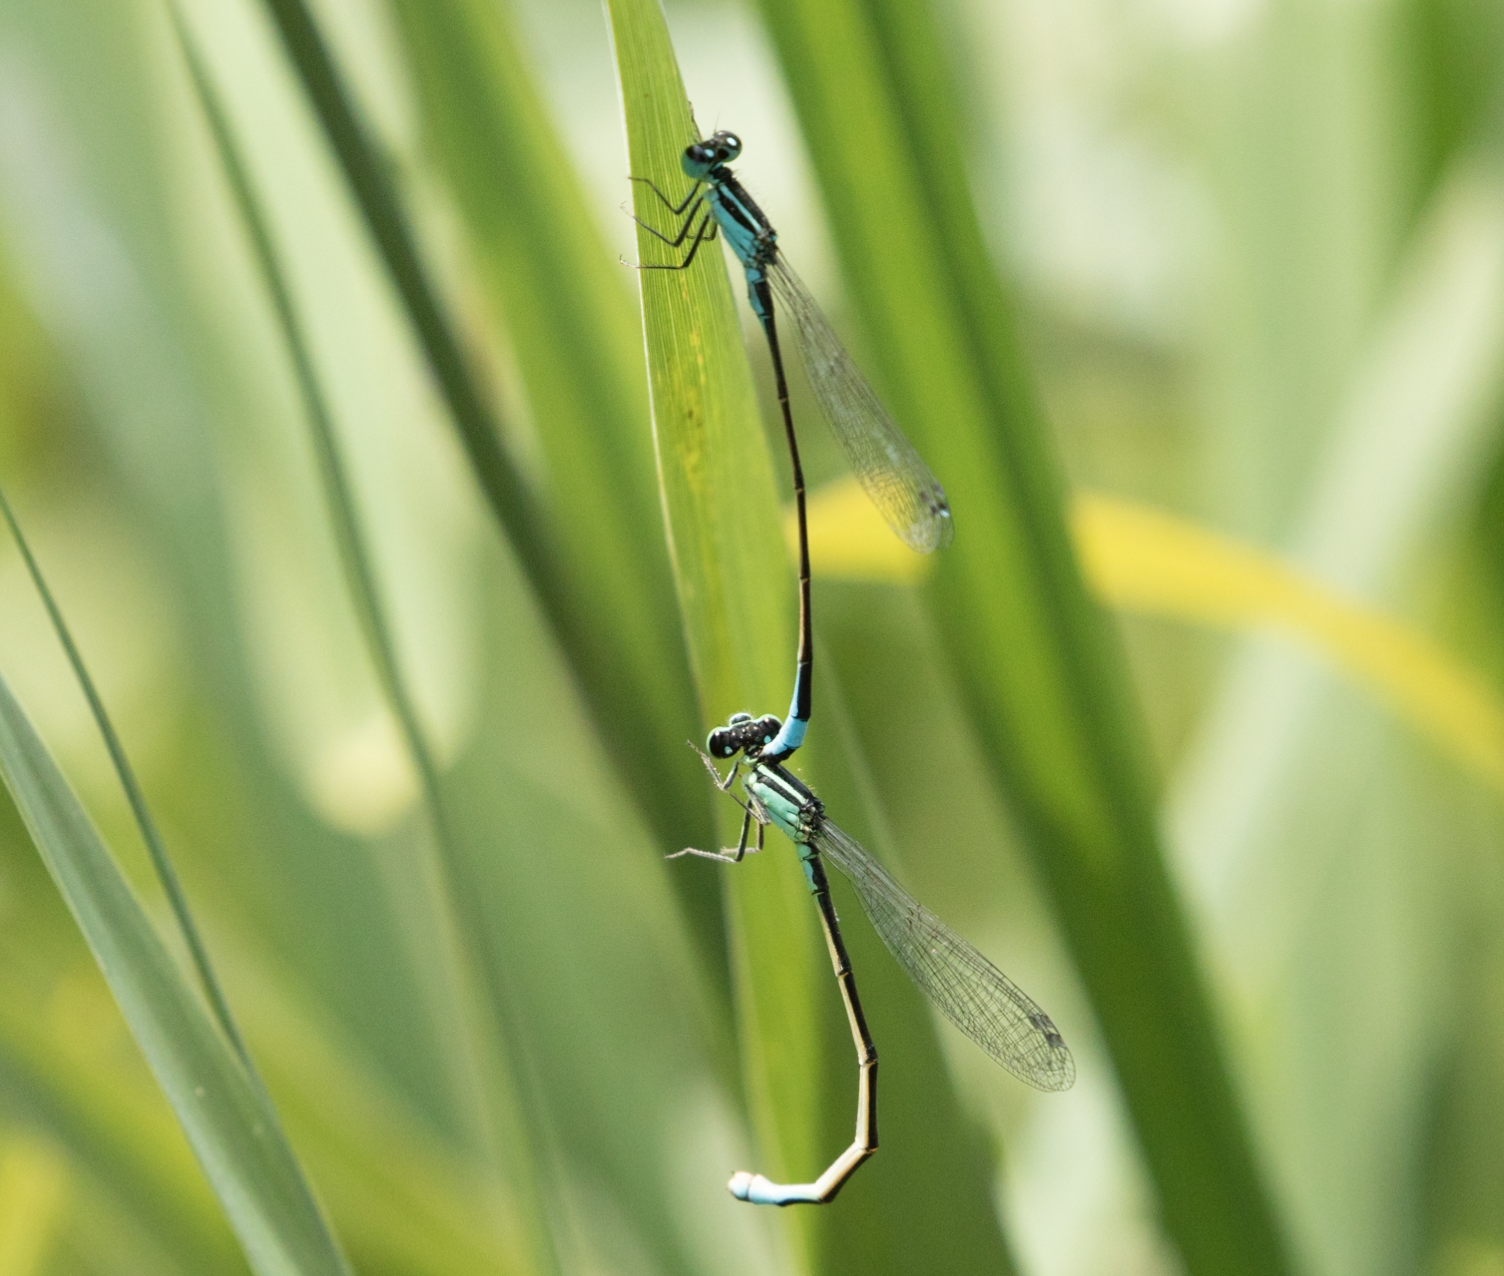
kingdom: Animalia
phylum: Arthropoda
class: Insecta
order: Odonata
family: Coenagrionidae
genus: Ischnura
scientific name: Ischnura elegans
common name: Blue-tailed damselfly
